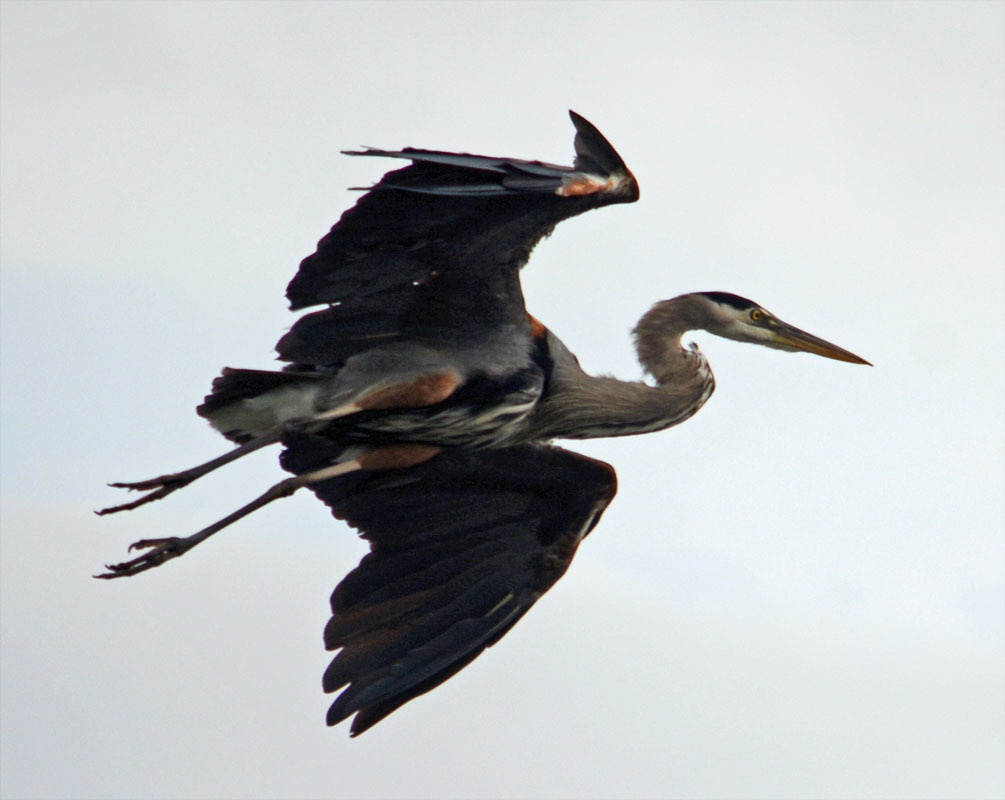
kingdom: Animalia
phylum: Chordata
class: Aves
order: Pelecaniformes
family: Ardeidae
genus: Ardea
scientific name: Ardea herodias
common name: Great blue heron
